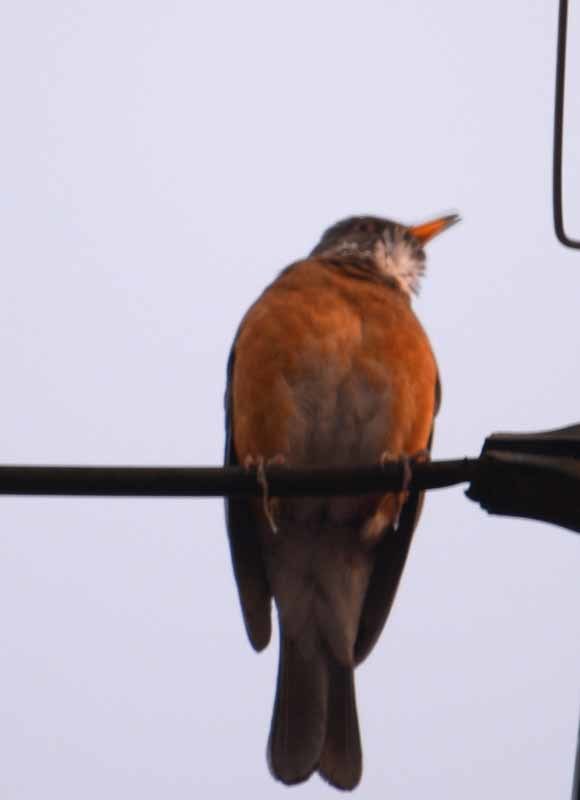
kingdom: Animalia
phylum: Chordata
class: Aves
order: Passeriformes
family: Turdidae
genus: Turdus
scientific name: Turdus rufopalliatus
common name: Rufous-backed robin
